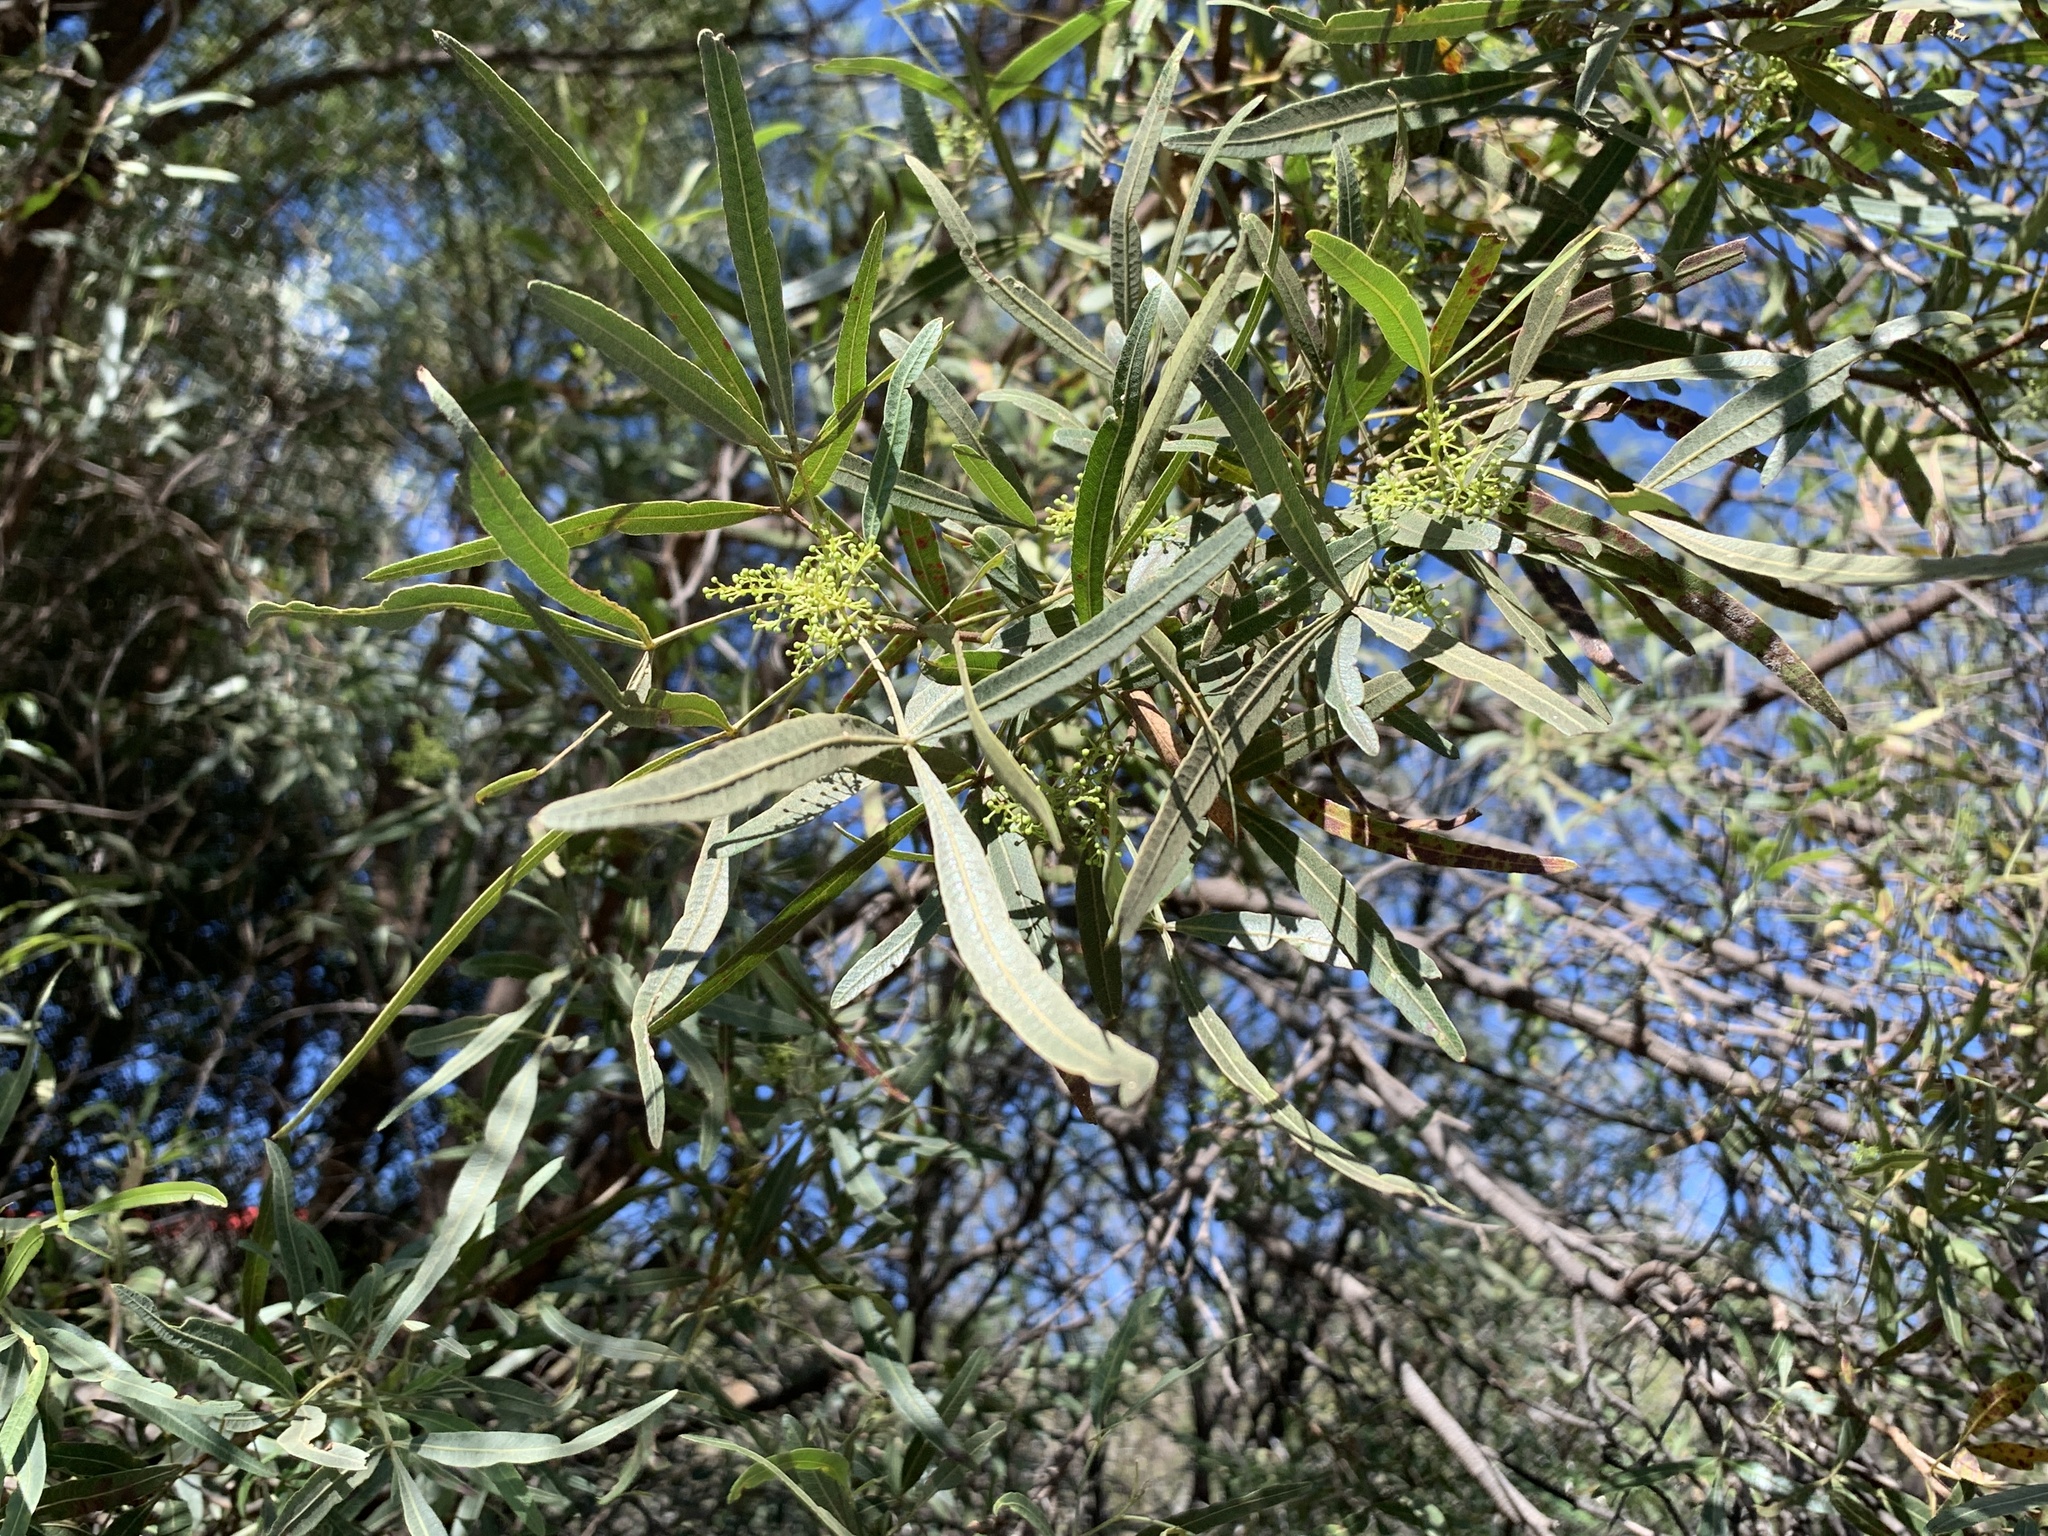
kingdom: Plantae
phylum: Tracheophyta
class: Magnoliopsida
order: Sapindales
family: Anacardiaceae
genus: Searsia
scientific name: Searsia lancea
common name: Cashew
